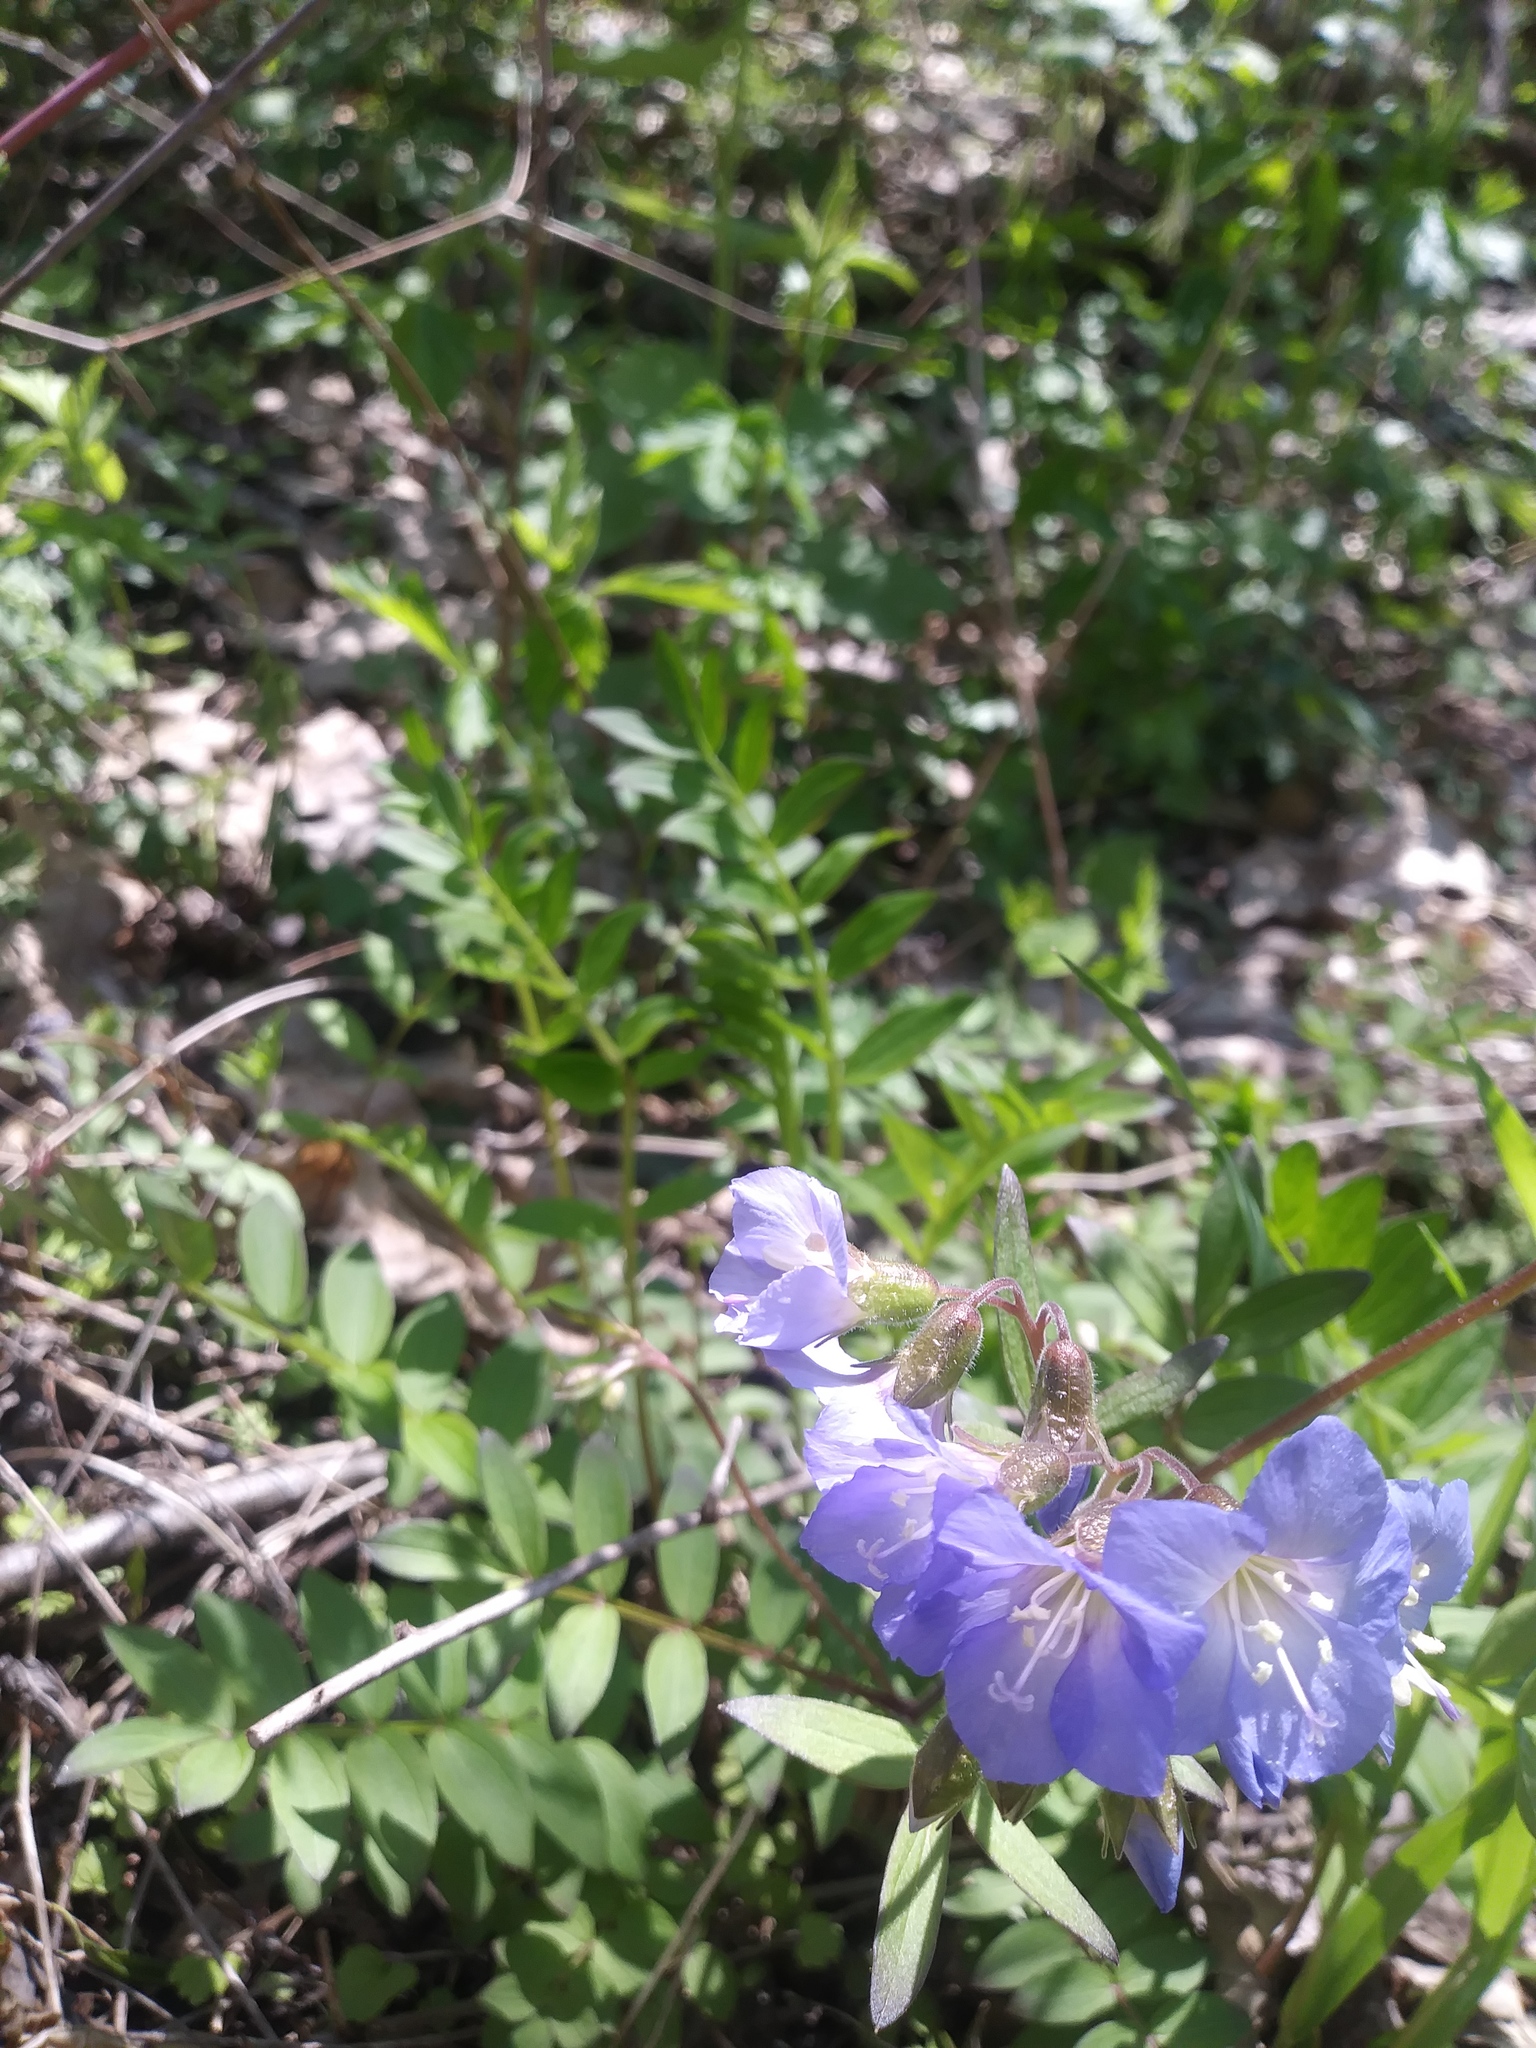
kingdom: Plantae
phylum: Tracheophyta
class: Magnoliopsida
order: Ericales
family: Polemoniaceae
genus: Polemonium
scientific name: Polemonium reptans
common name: Creeping jacob's-ladder
